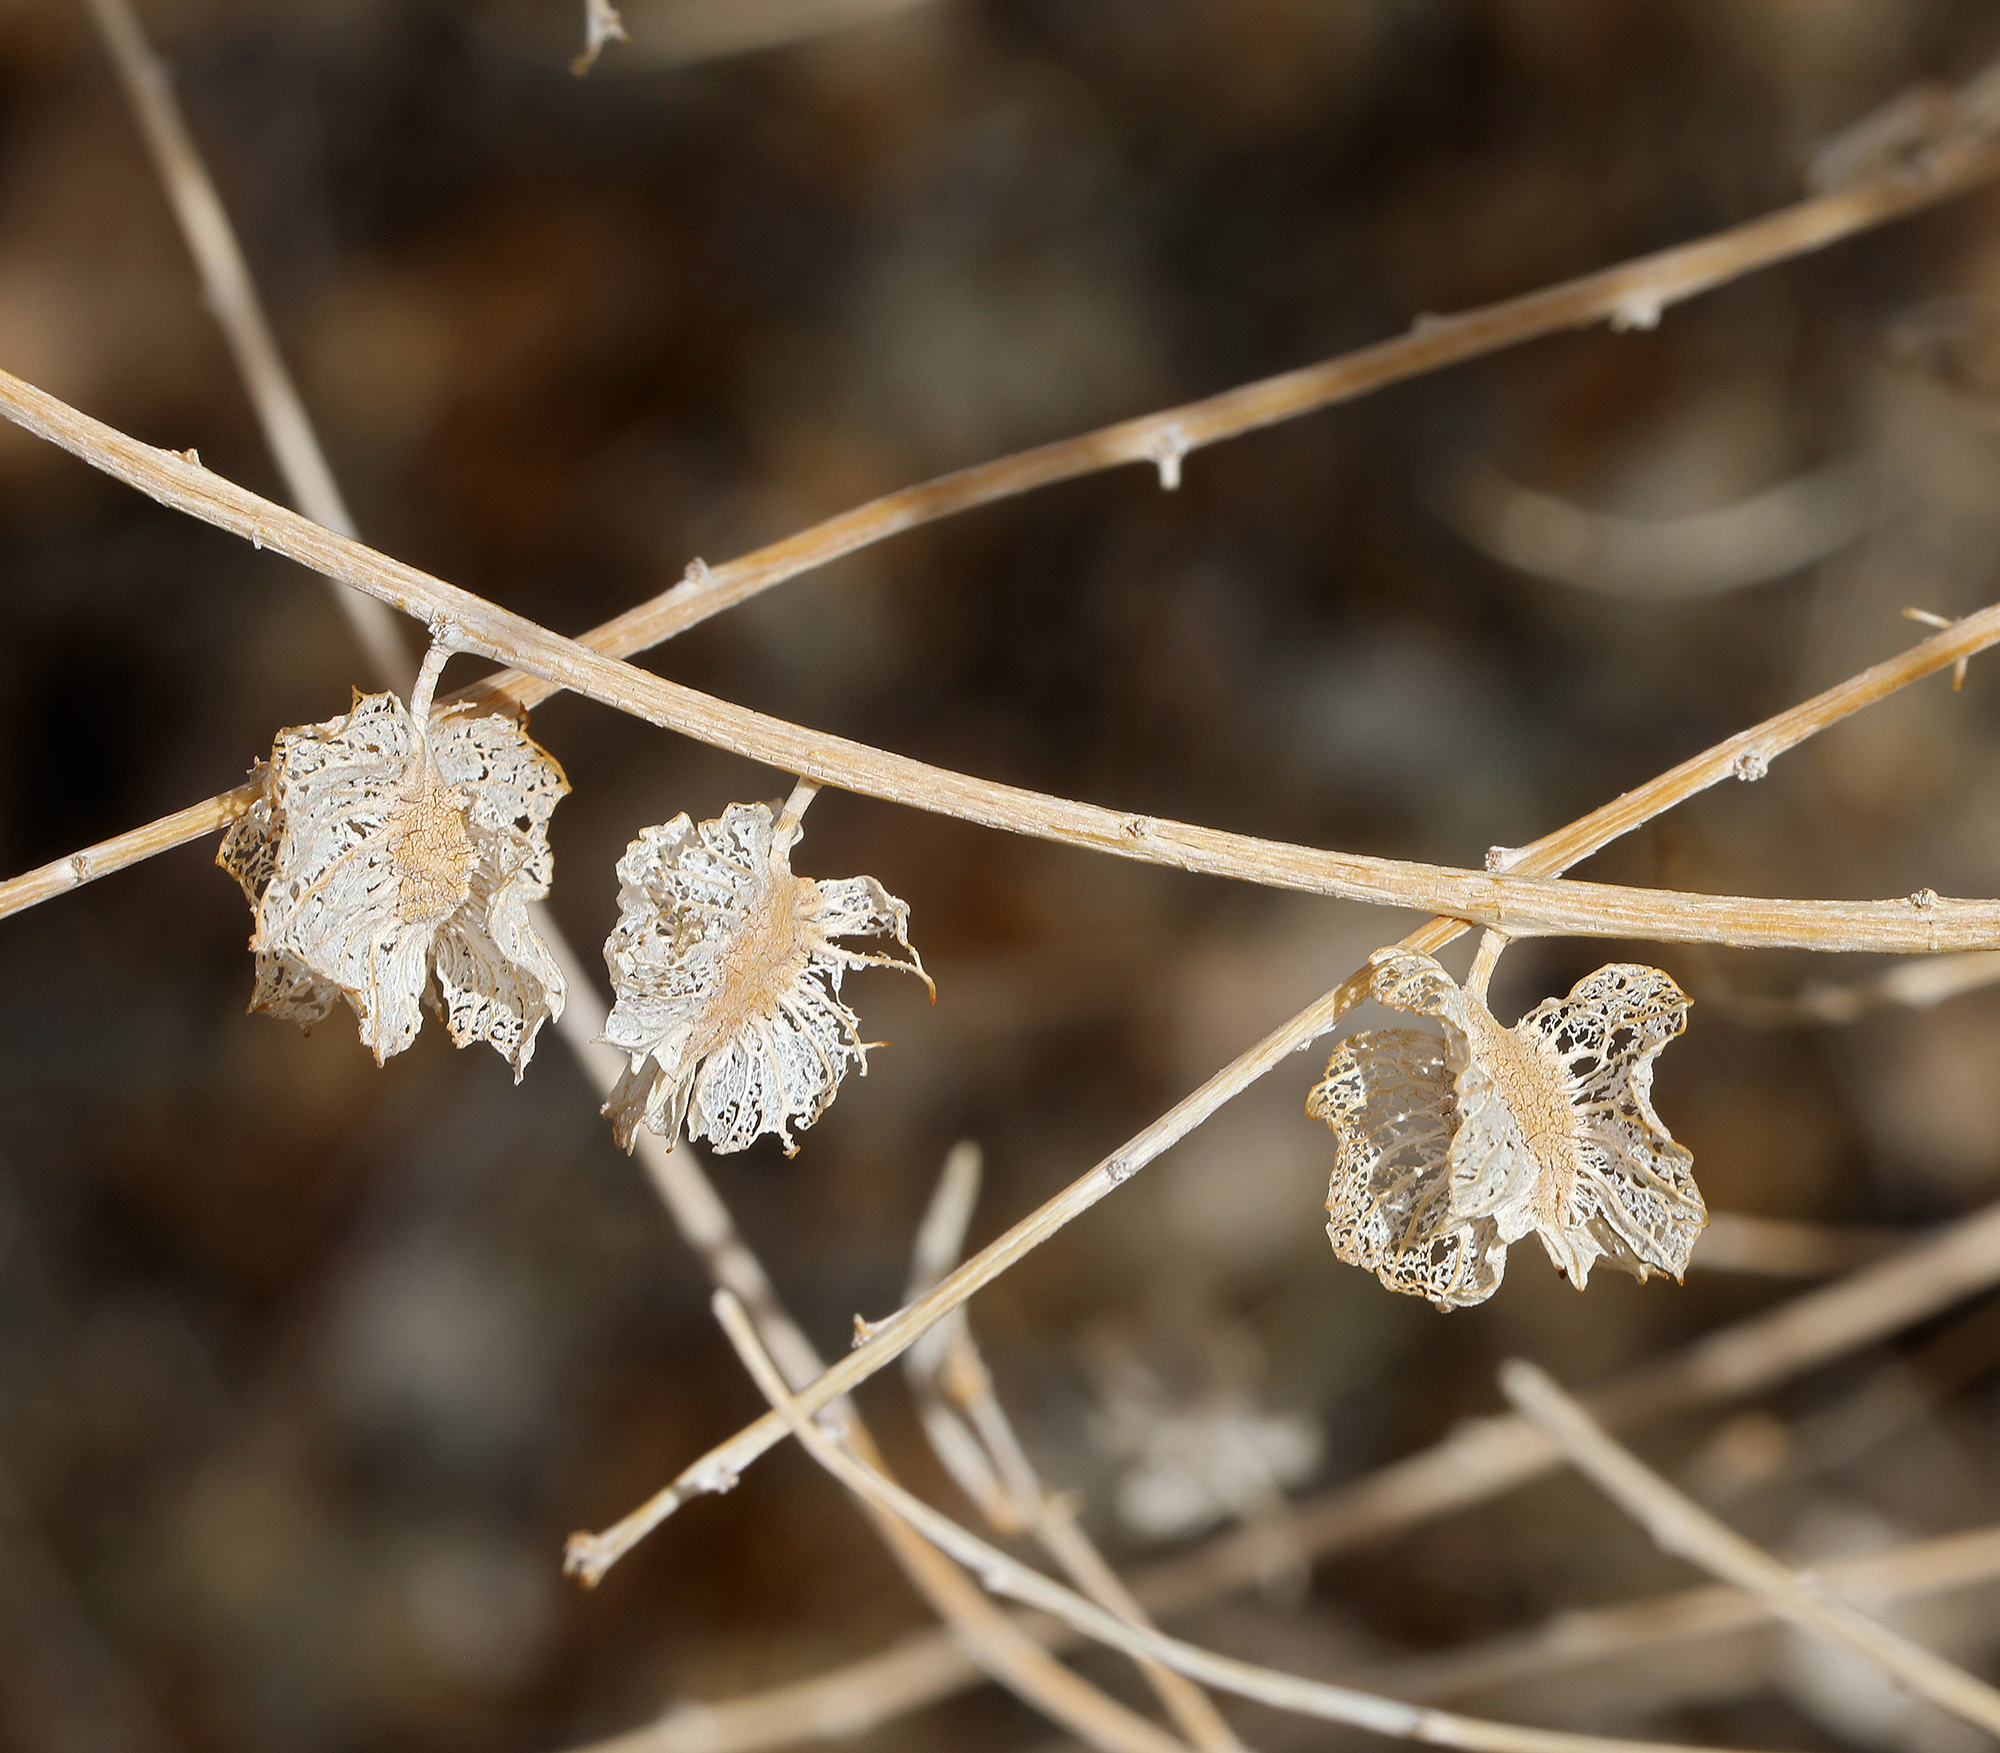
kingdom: Plantae
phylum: Tracheophyta
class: Magnoliopsida
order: Caryophyllales
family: Amaranthaceae
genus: Atriplex
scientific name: Atriplex canescens
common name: Four-wing saltbush
